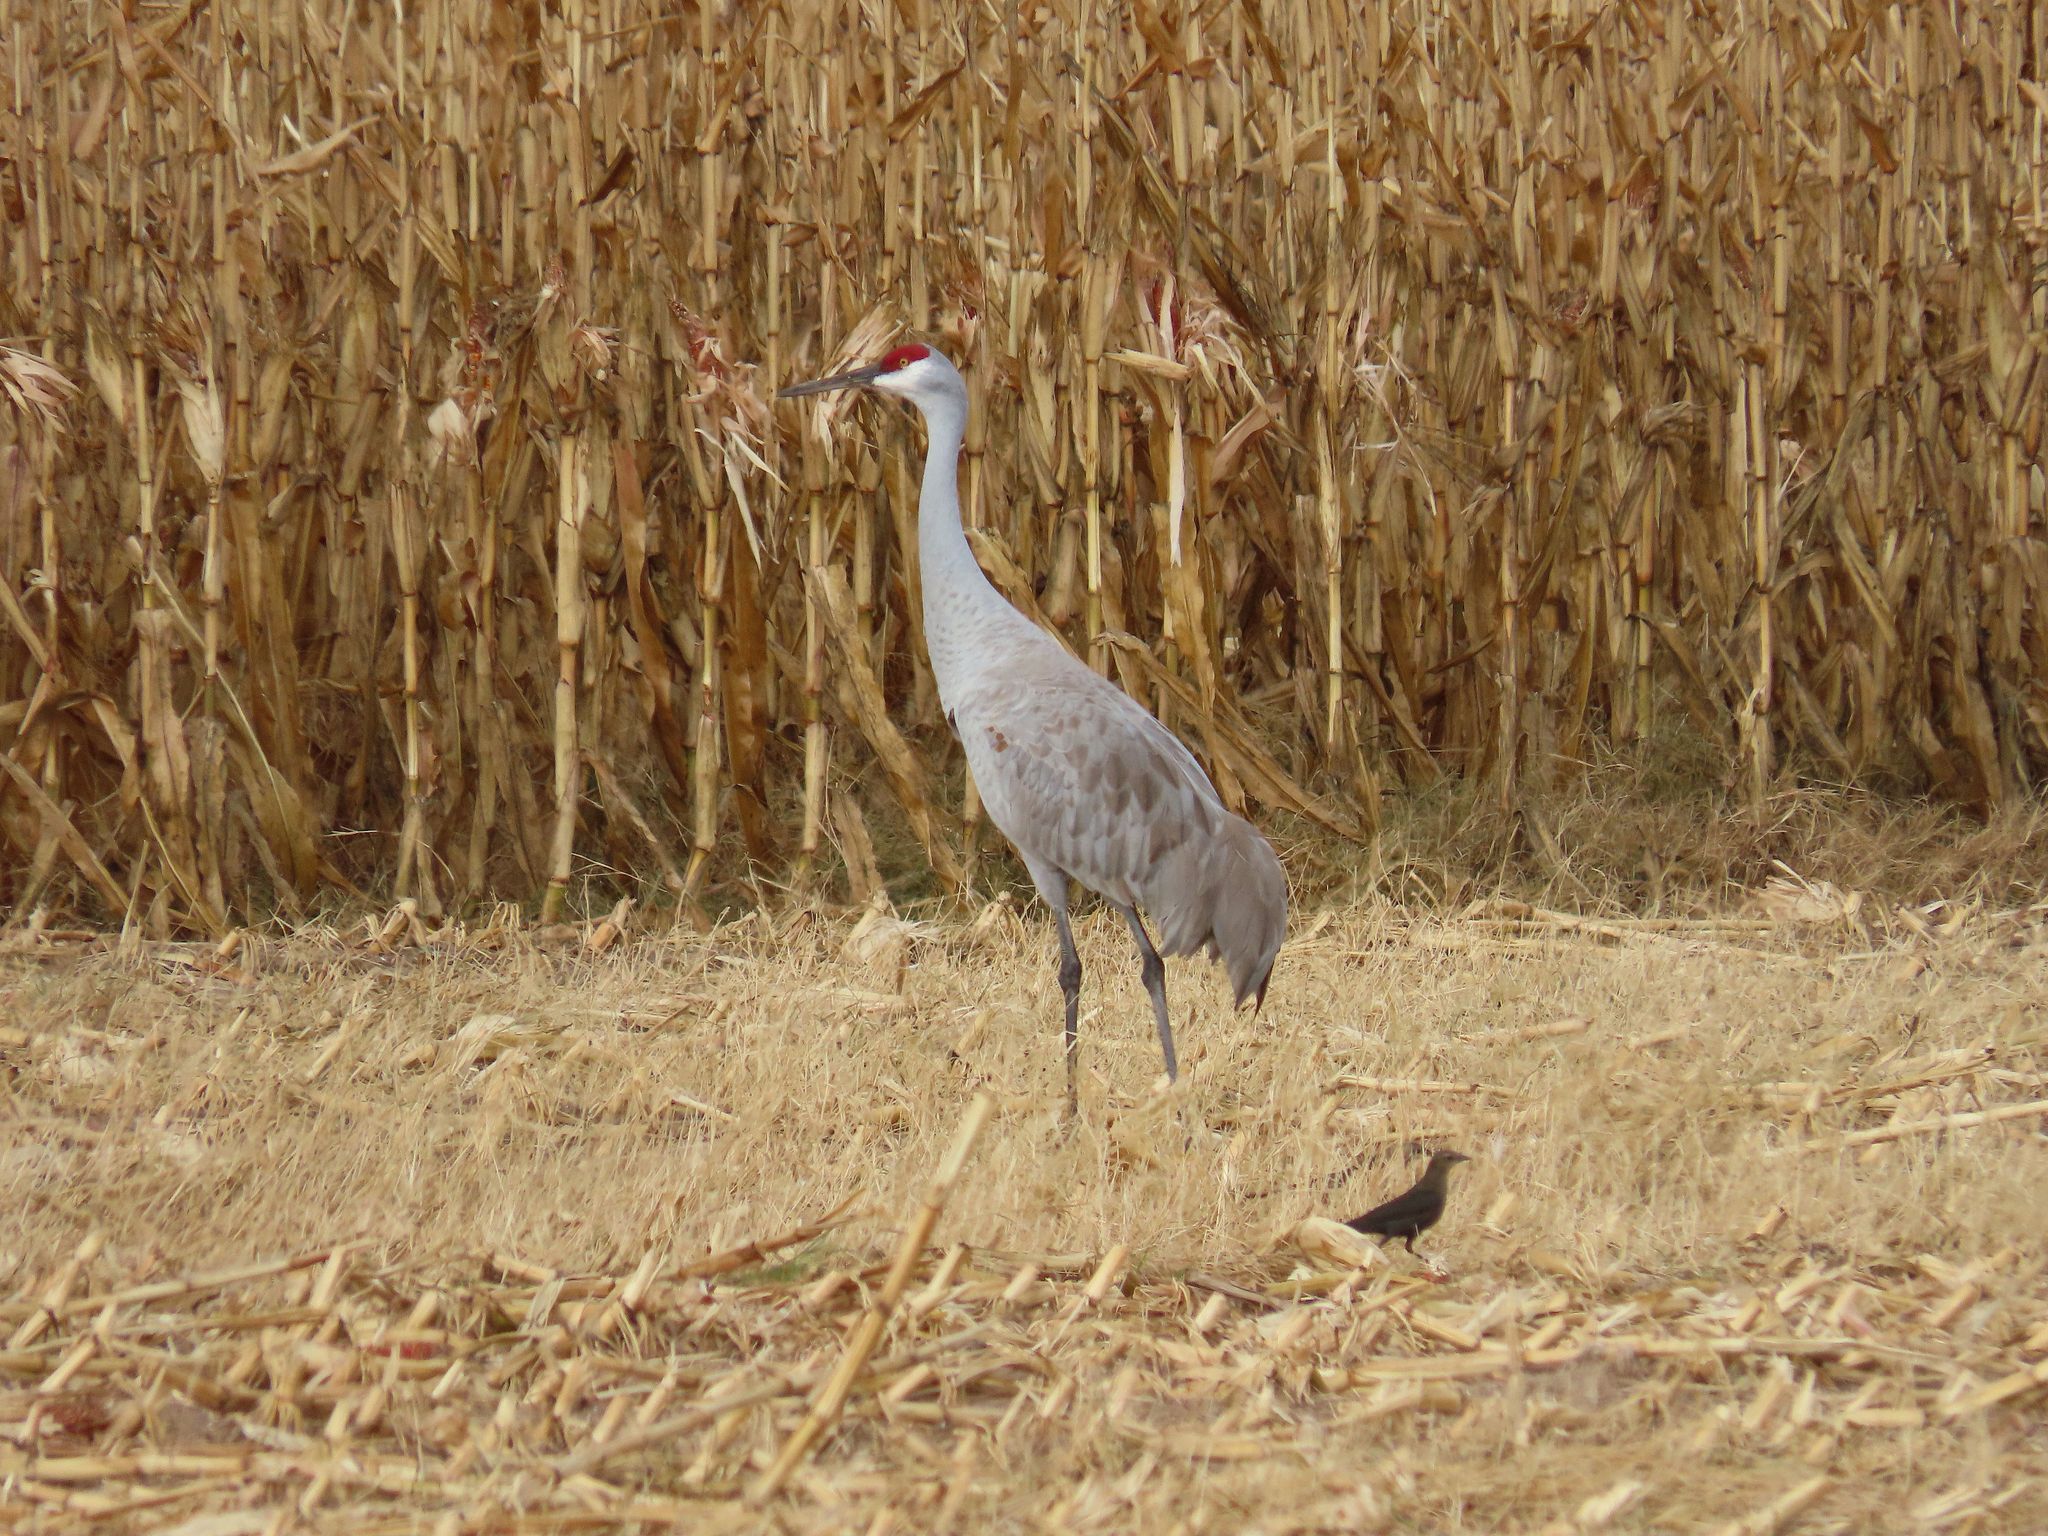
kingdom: Animalia
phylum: Chordata
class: Aves
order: Gruiformes
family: Gruidae
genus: Grus
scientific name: Grus canadensis
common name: Sandhill crane
